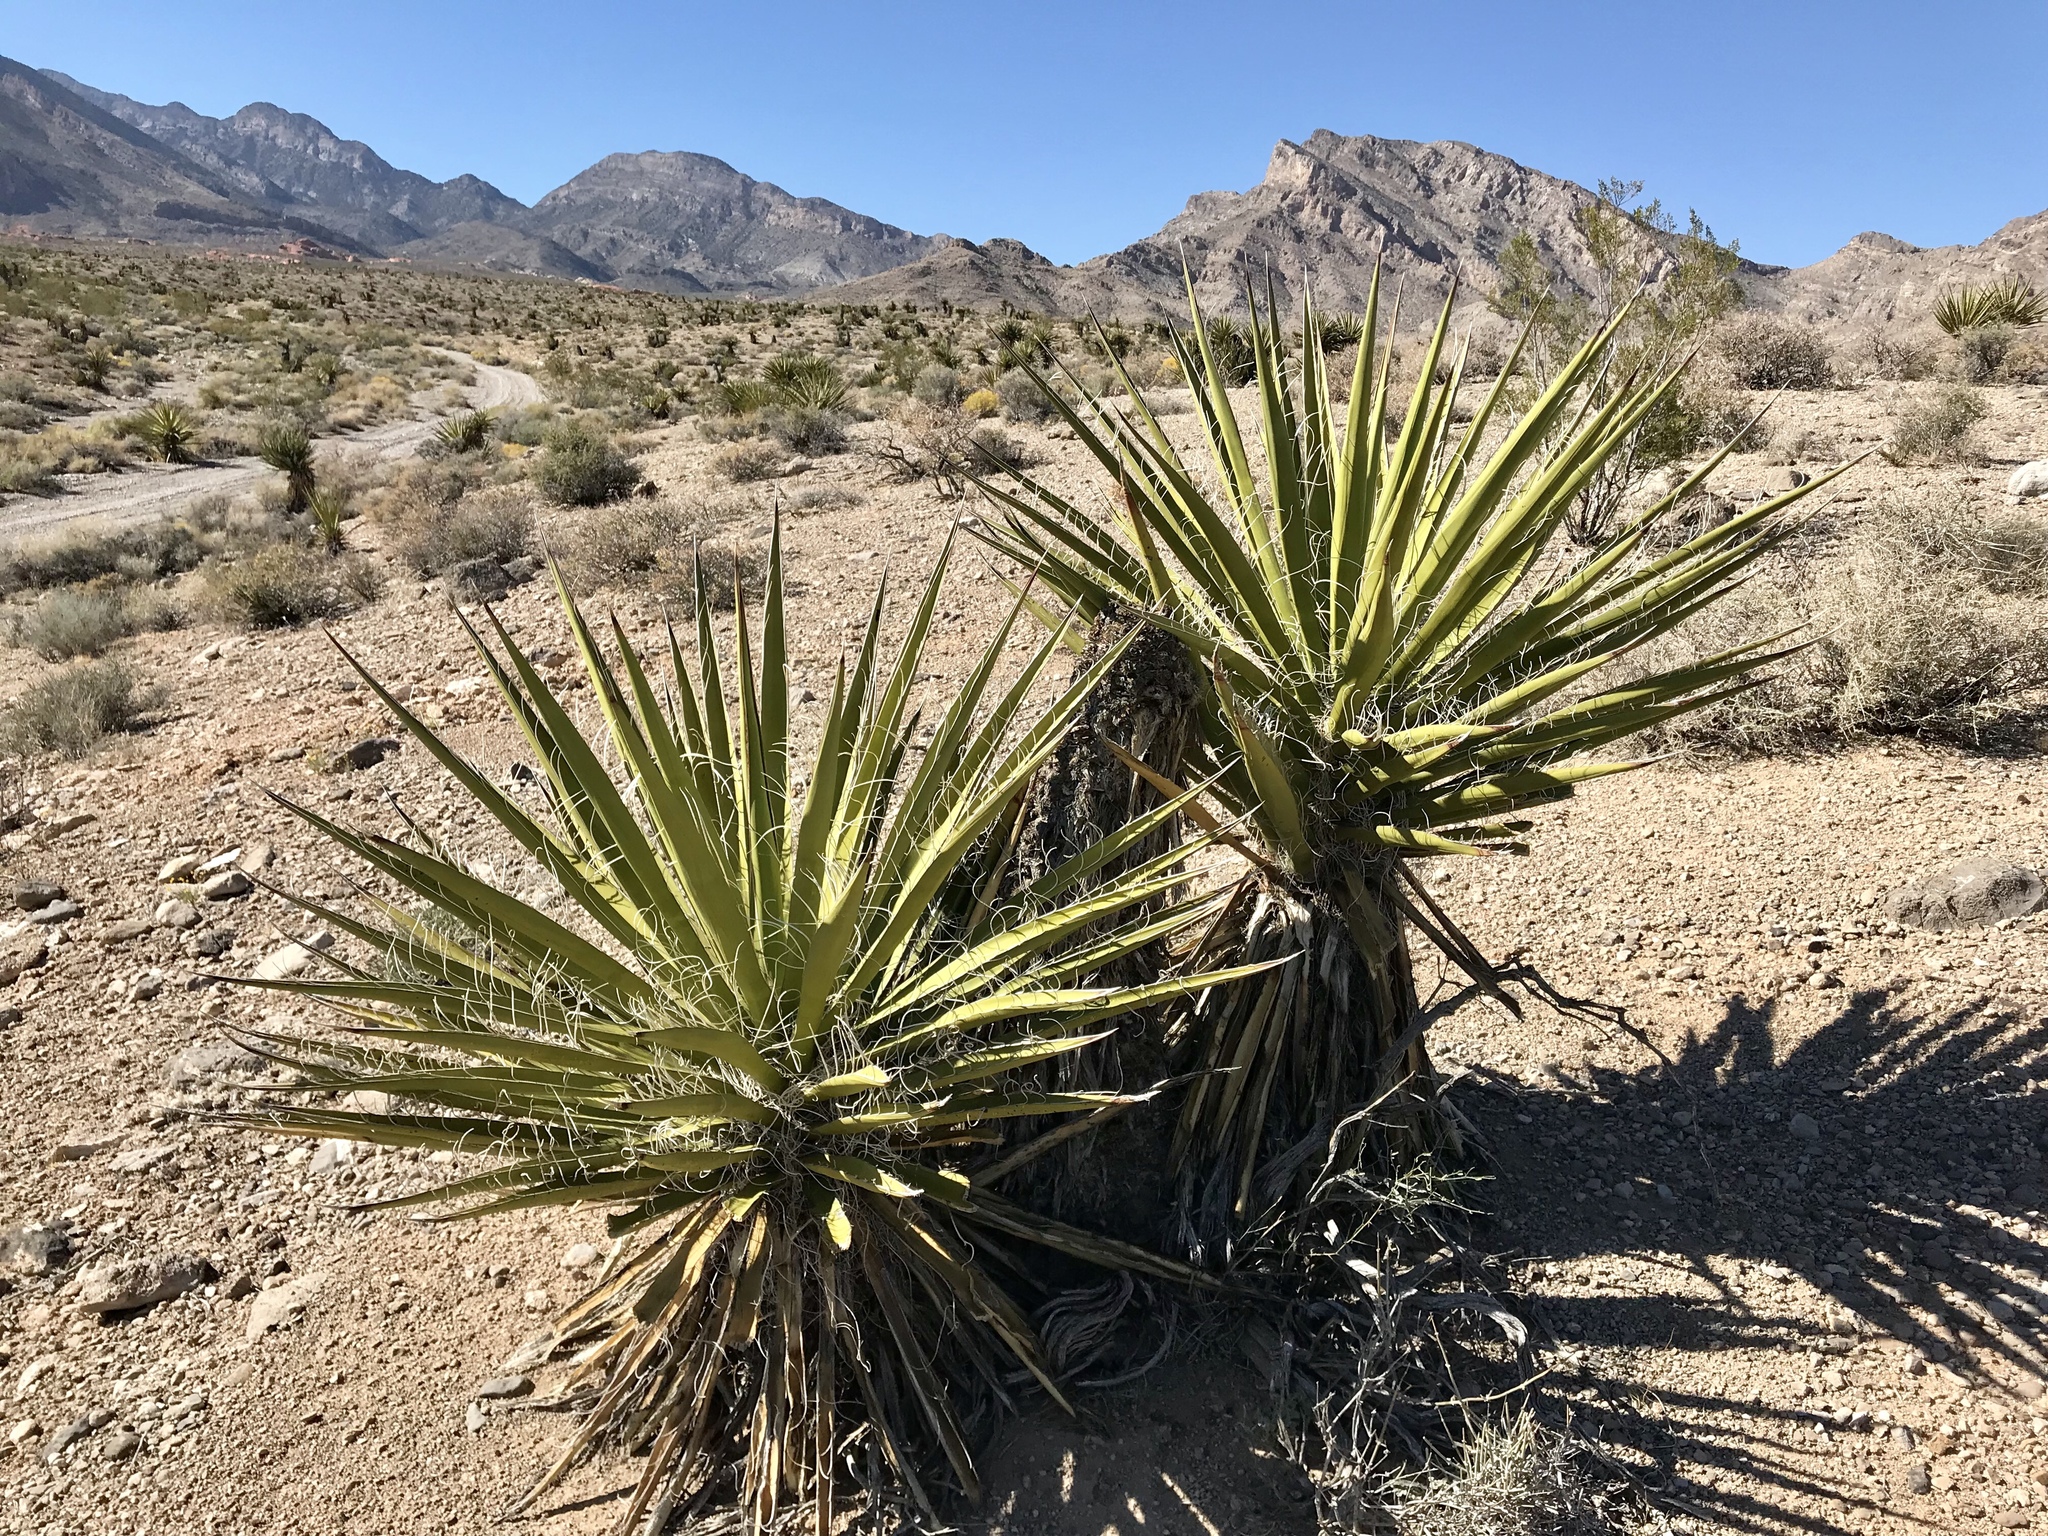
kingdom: Plantae
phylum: Tracheophyta
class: Liliopsida
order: Asparagales
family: Asparagaceae
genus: Yucca
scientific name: Yucca schidigera
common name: Mojave yucca
